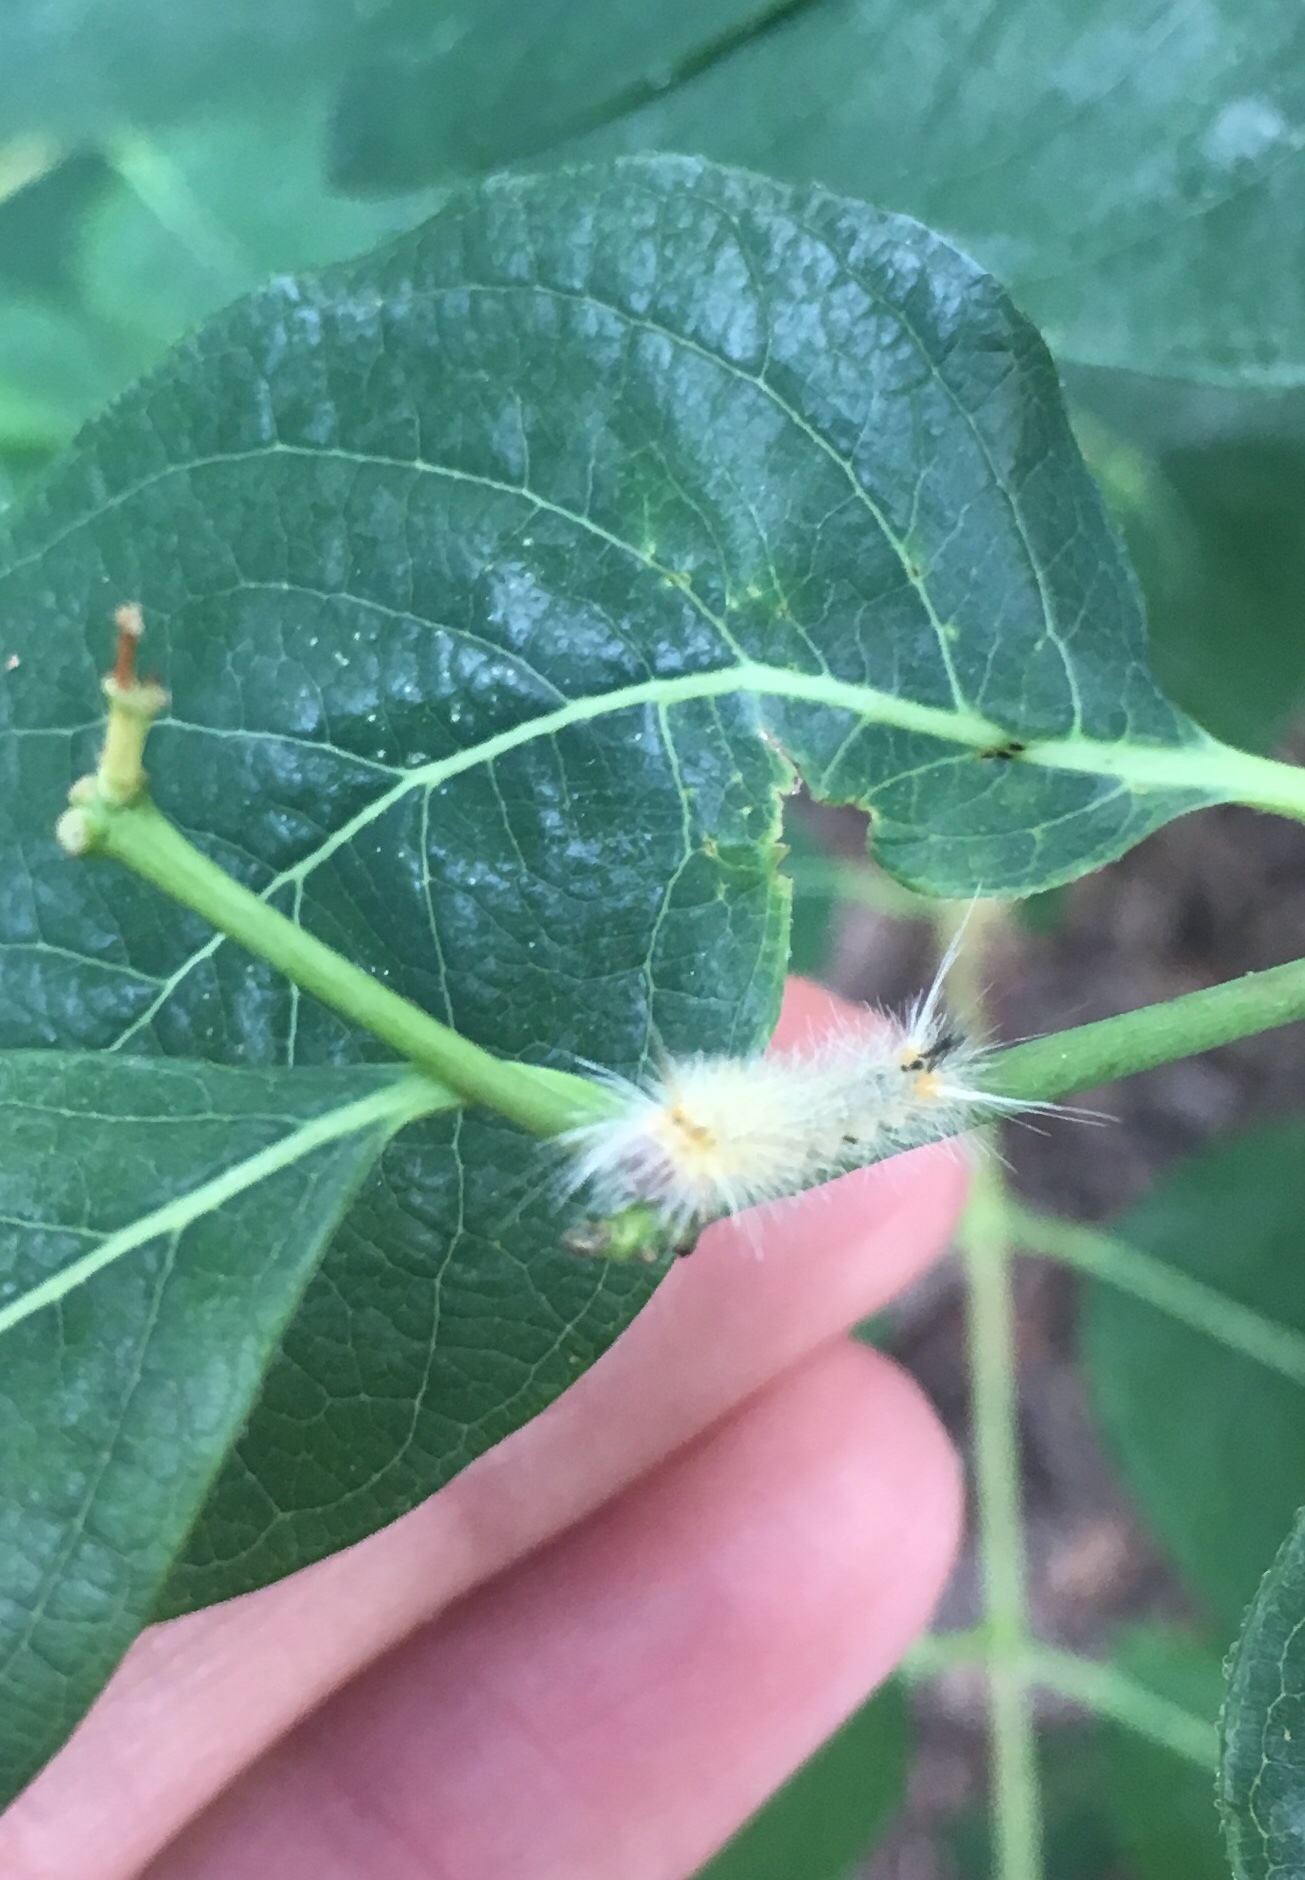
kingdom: Animalia
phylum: Arthropoda
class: Insecta
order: Lepidoptera
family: Erebidae
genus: Orgyia
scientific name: Orgyia definita
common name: Definite tussock moth
